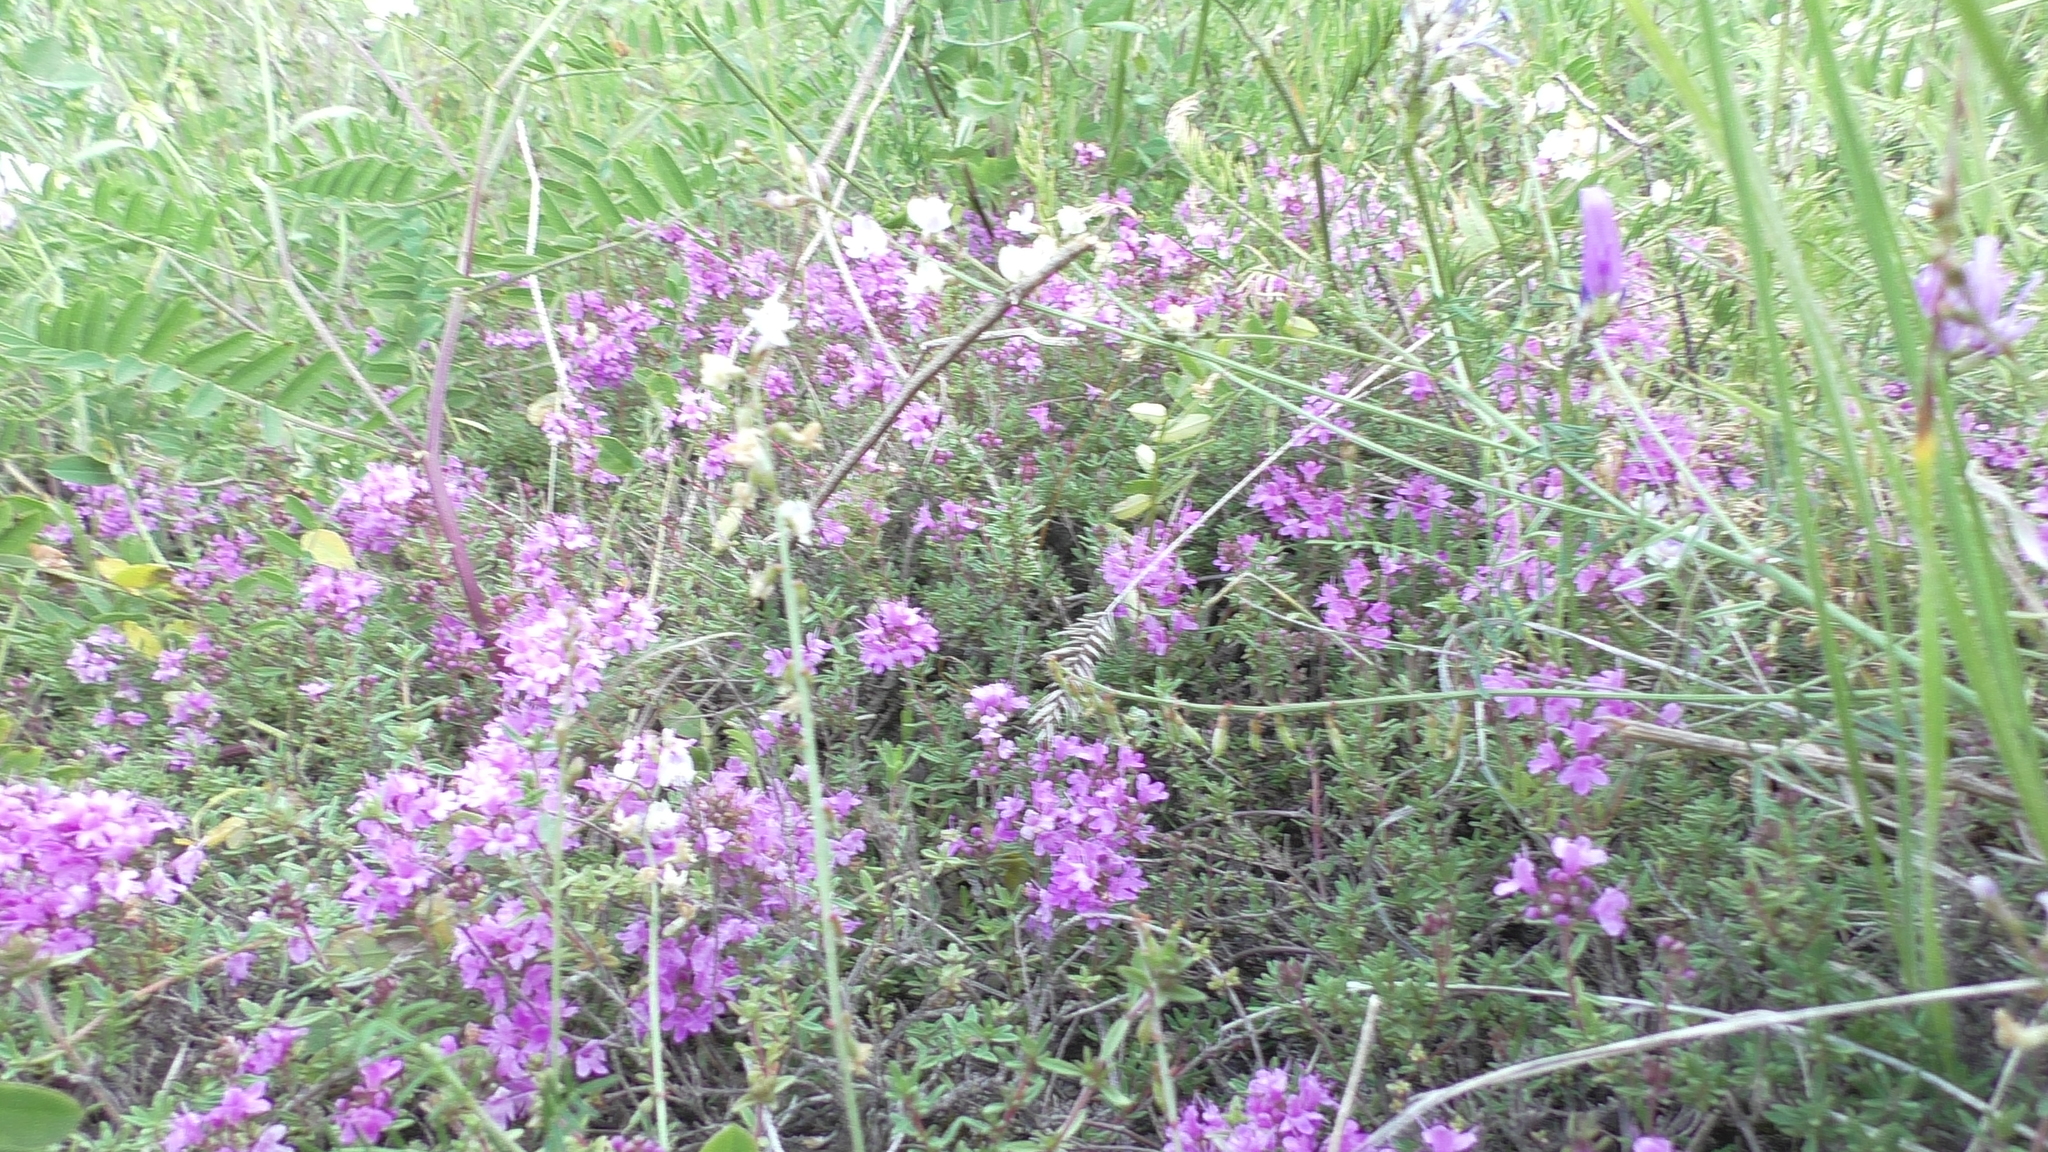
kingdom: Plantae
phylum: Tracheophyta
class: Magnoliopsida
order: Lamiales
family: Lamiaceae
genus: Thymus
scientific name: Thymus calcareus
